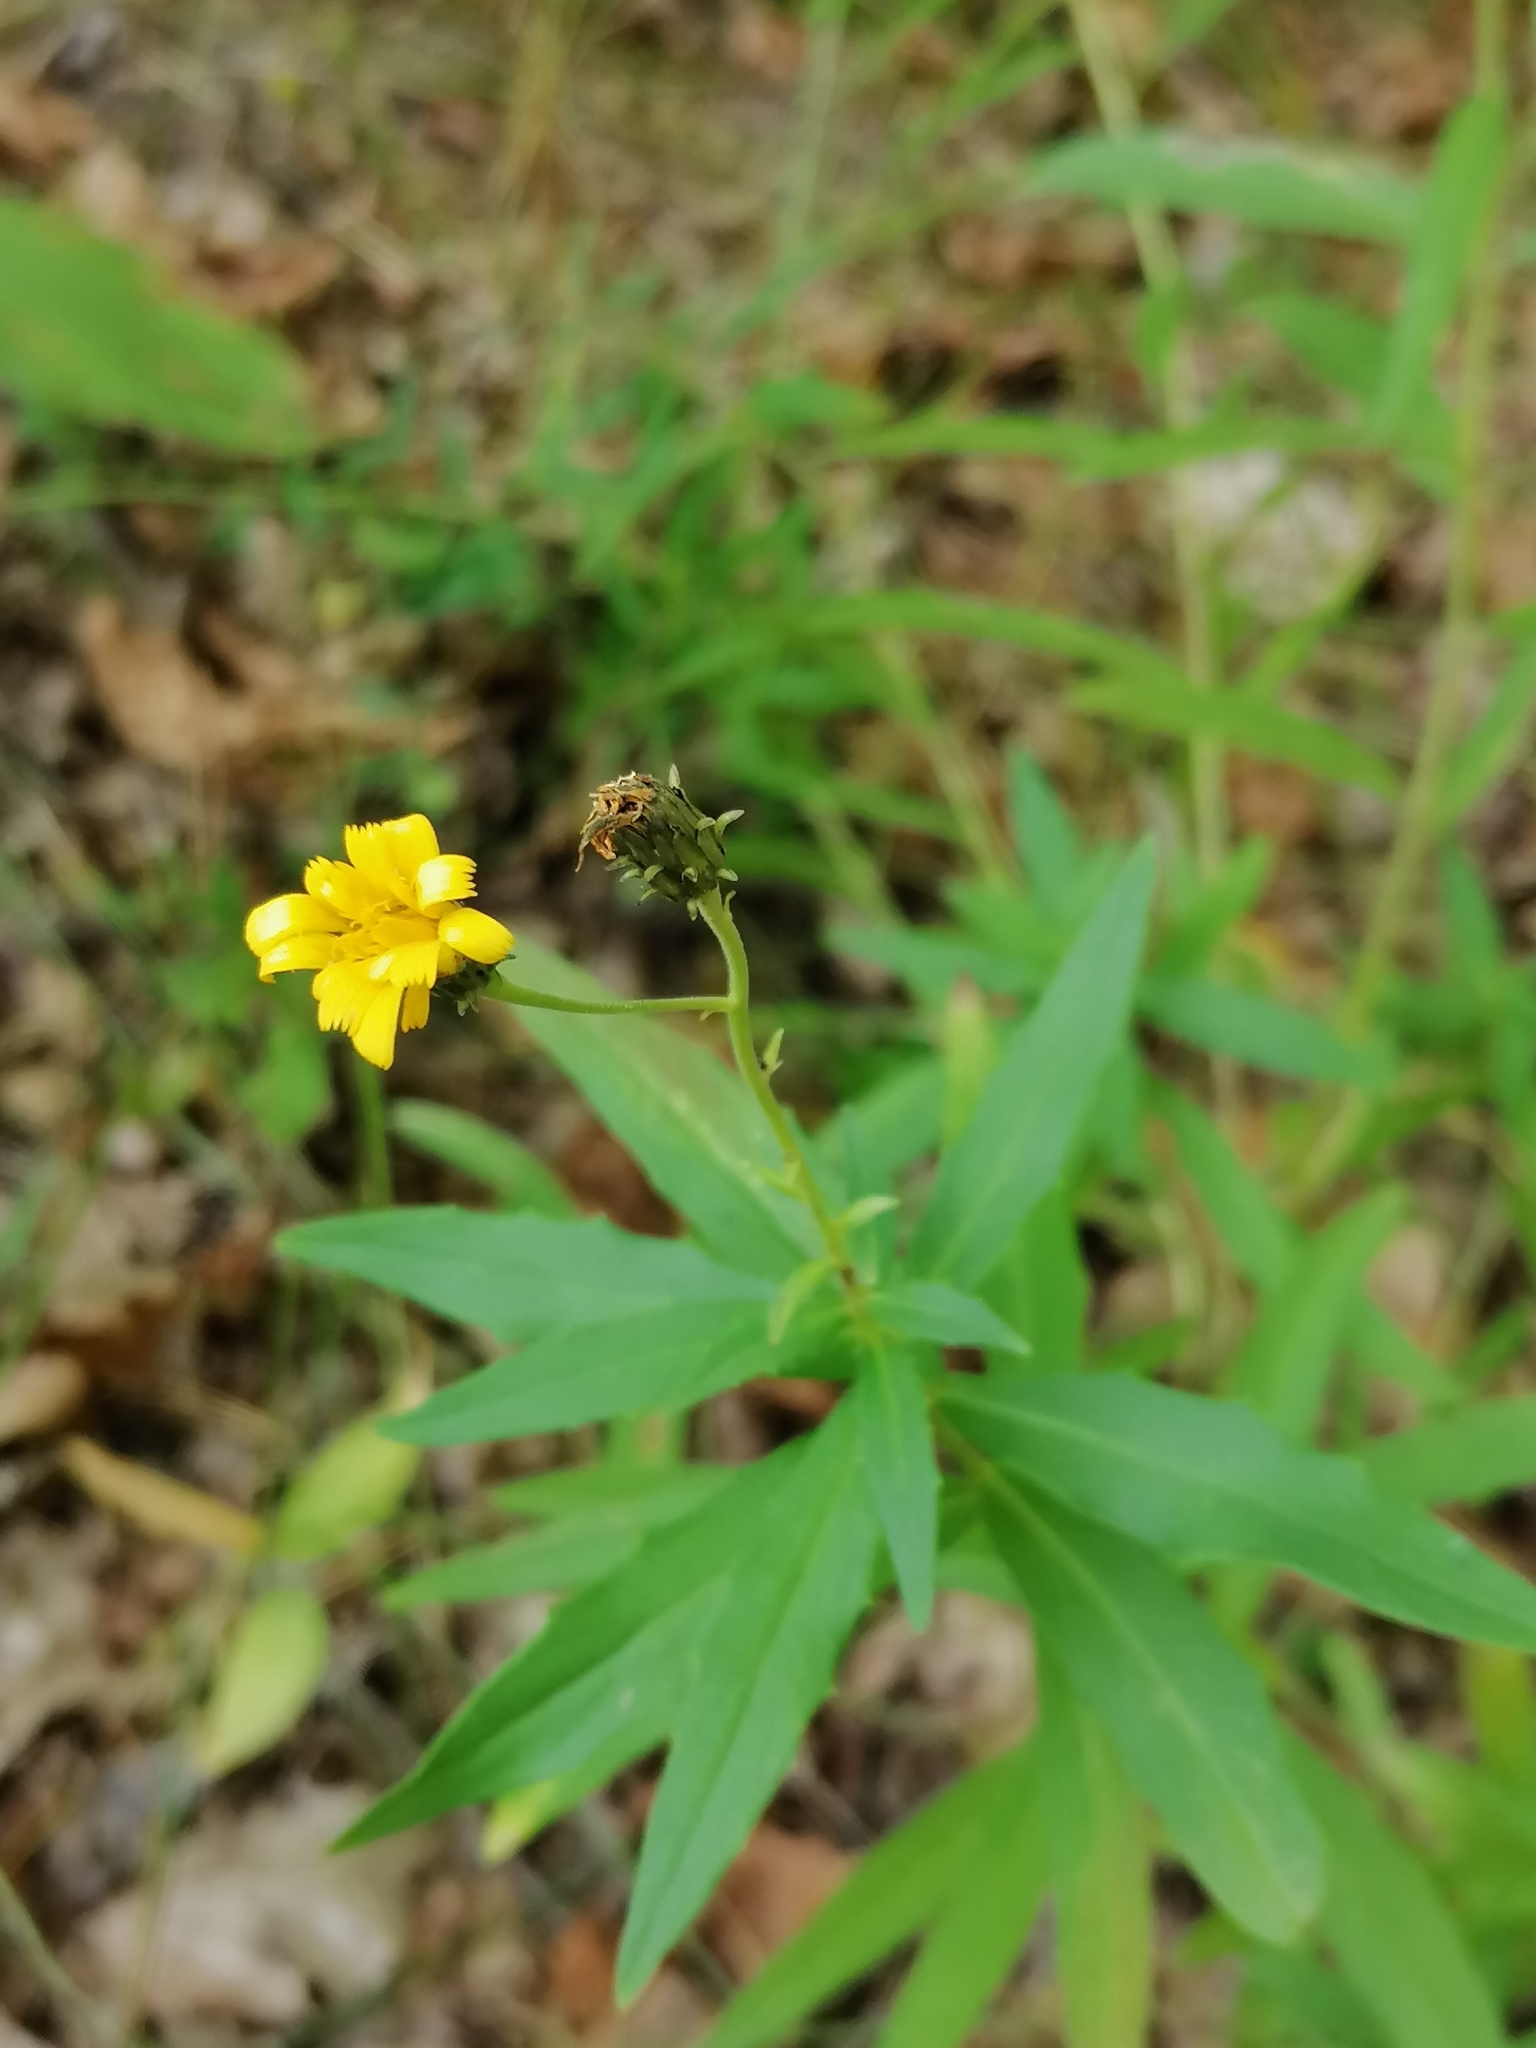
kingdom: Plantae
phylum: Tracheophyta
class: Magnoliopsida
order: Asterales
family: Asteraceae
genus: Hieracium
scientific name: Hieracium umbellatum
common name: Northern hawkweed
